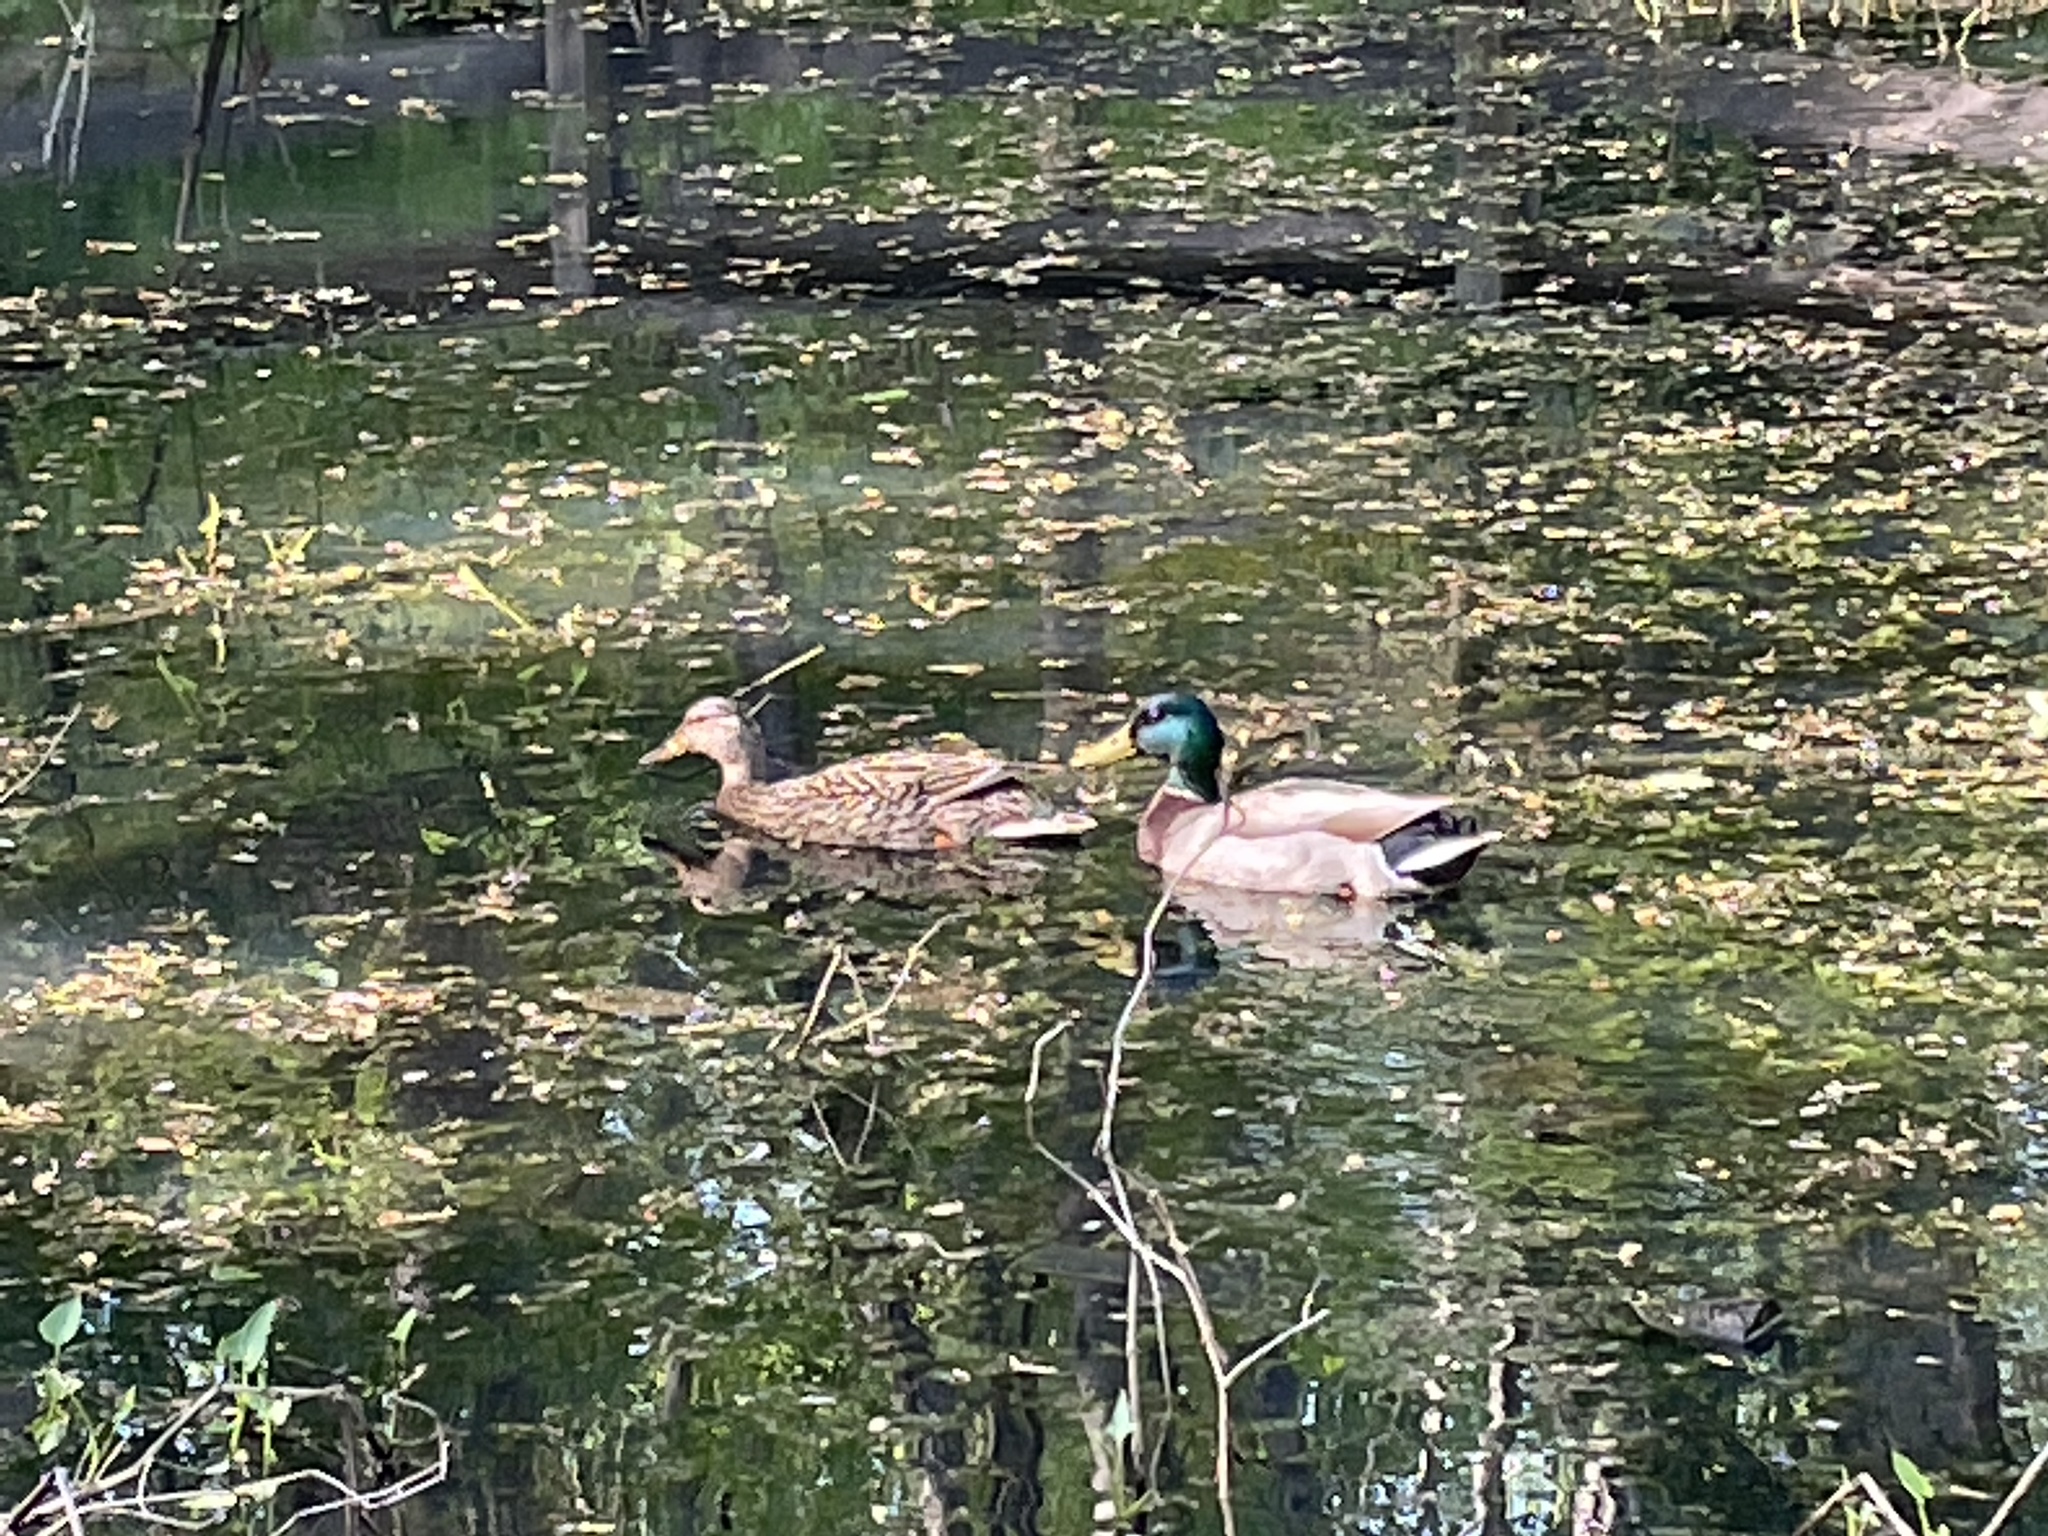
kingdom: Animalia
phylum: Chordata
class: Aves
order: Anseriformes
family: Anatidae
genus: Anas
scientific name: Anas platyrhynchos
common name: Mallard
